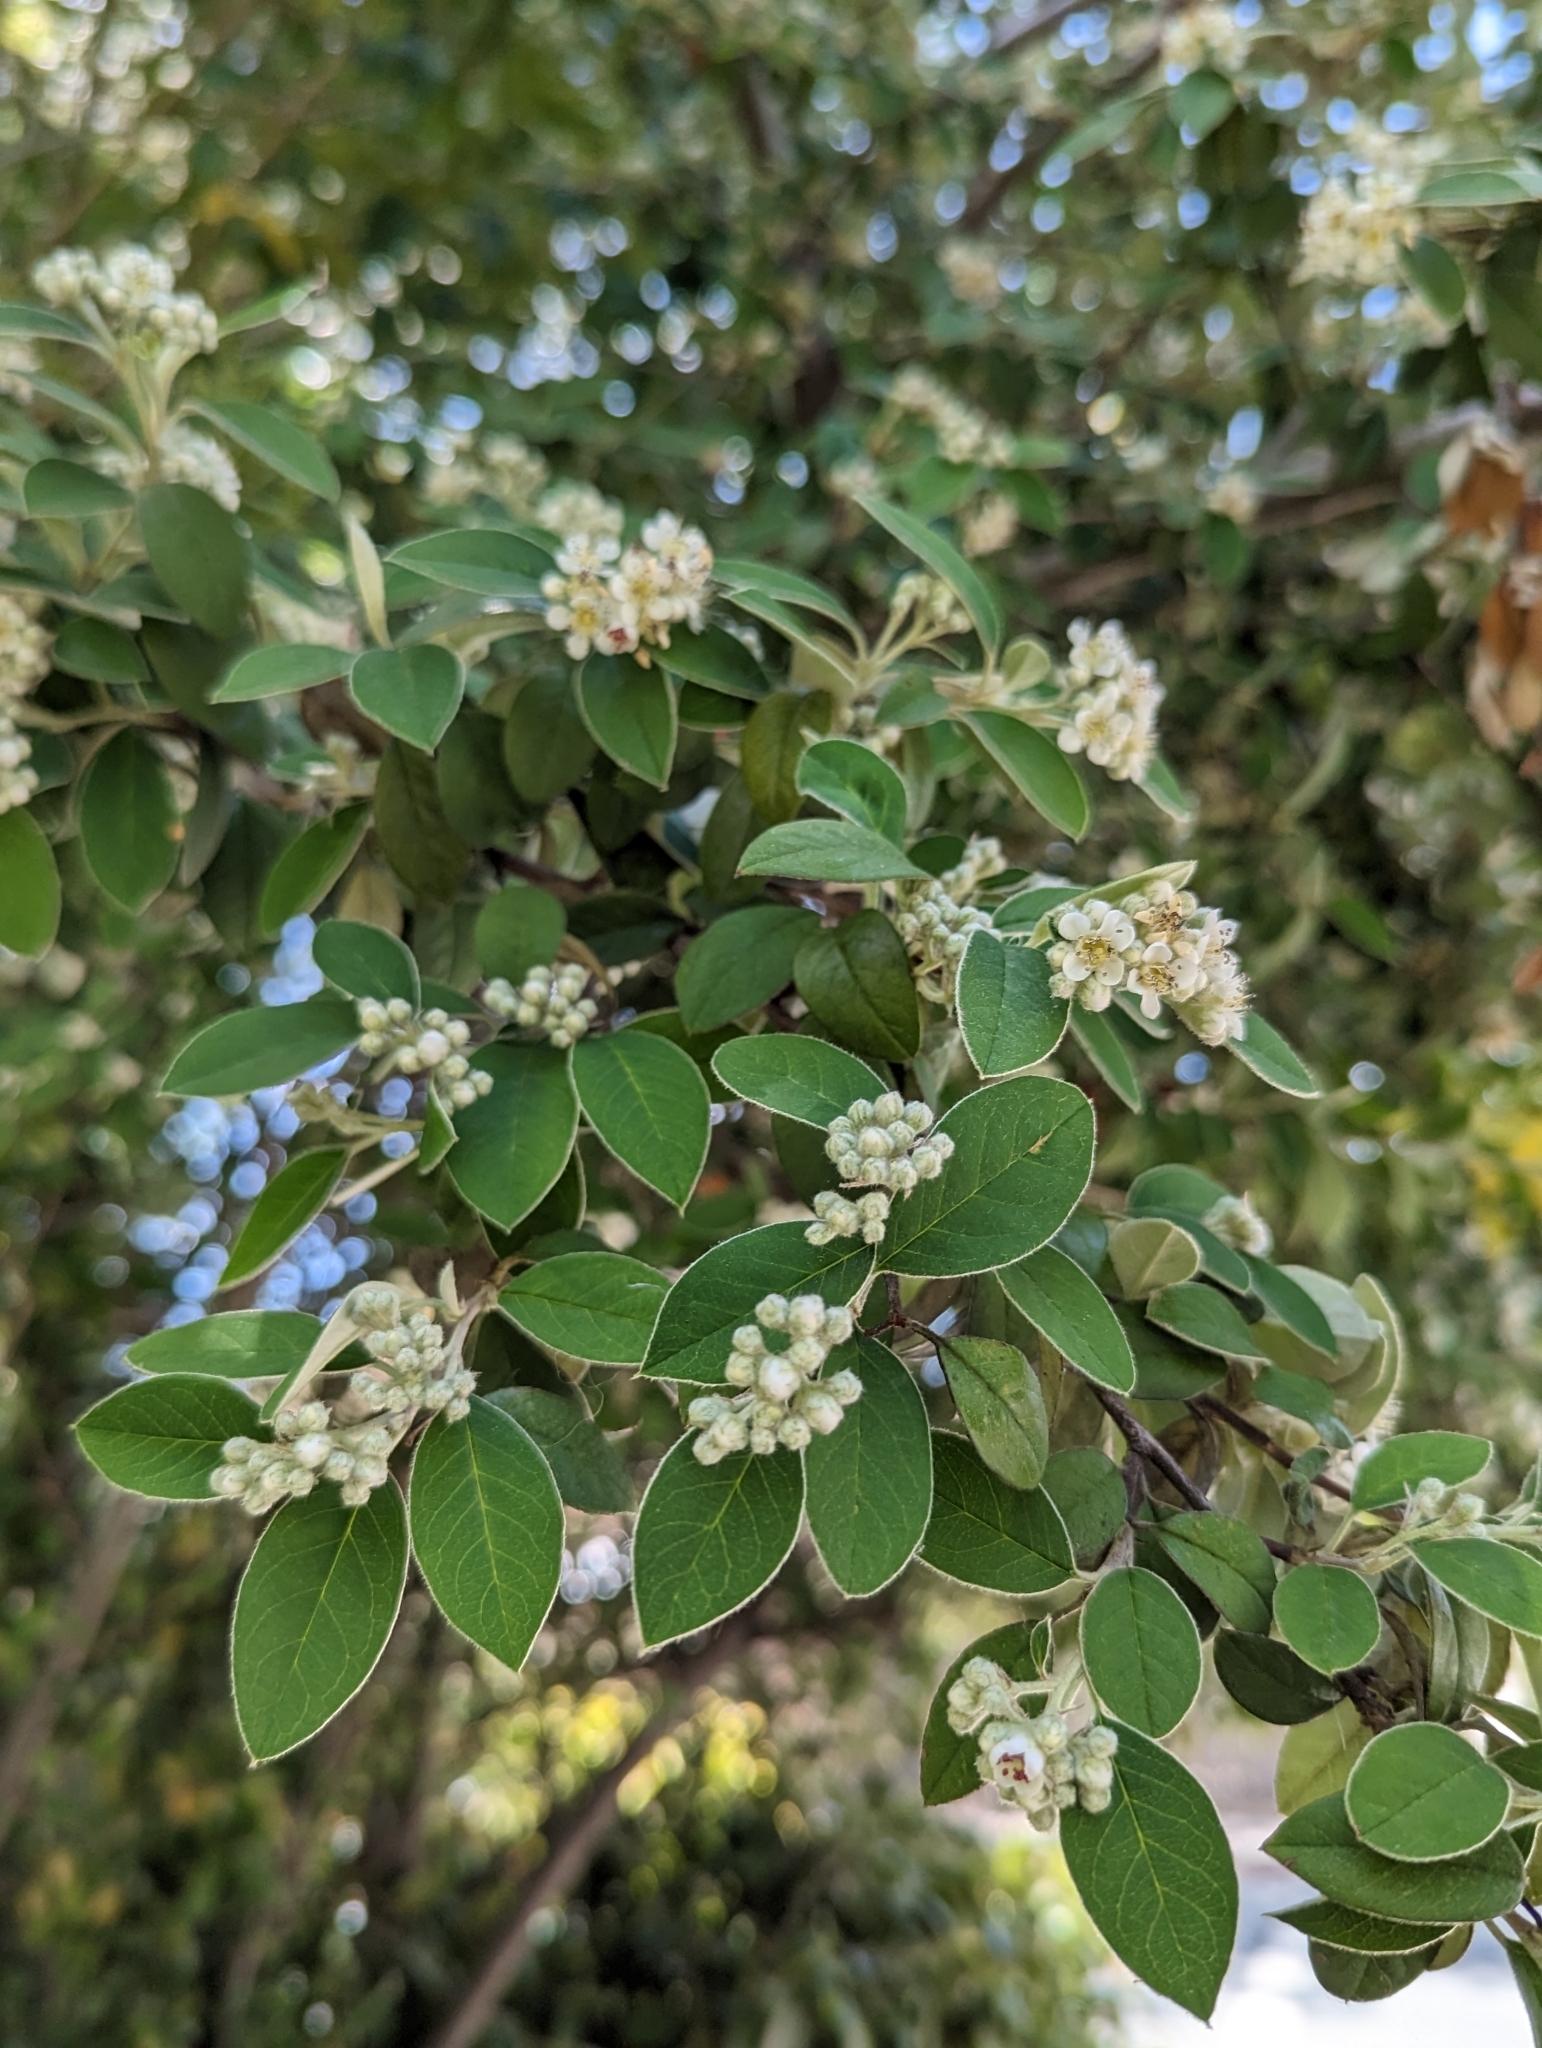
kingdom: Plantae
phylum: Tracheophyta
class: Magnoliopsida
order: Rosales
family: Rosaceae
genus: Cotoneaster
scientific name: Cotoneaster pannosus
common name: Silverleaf cotoneaster
